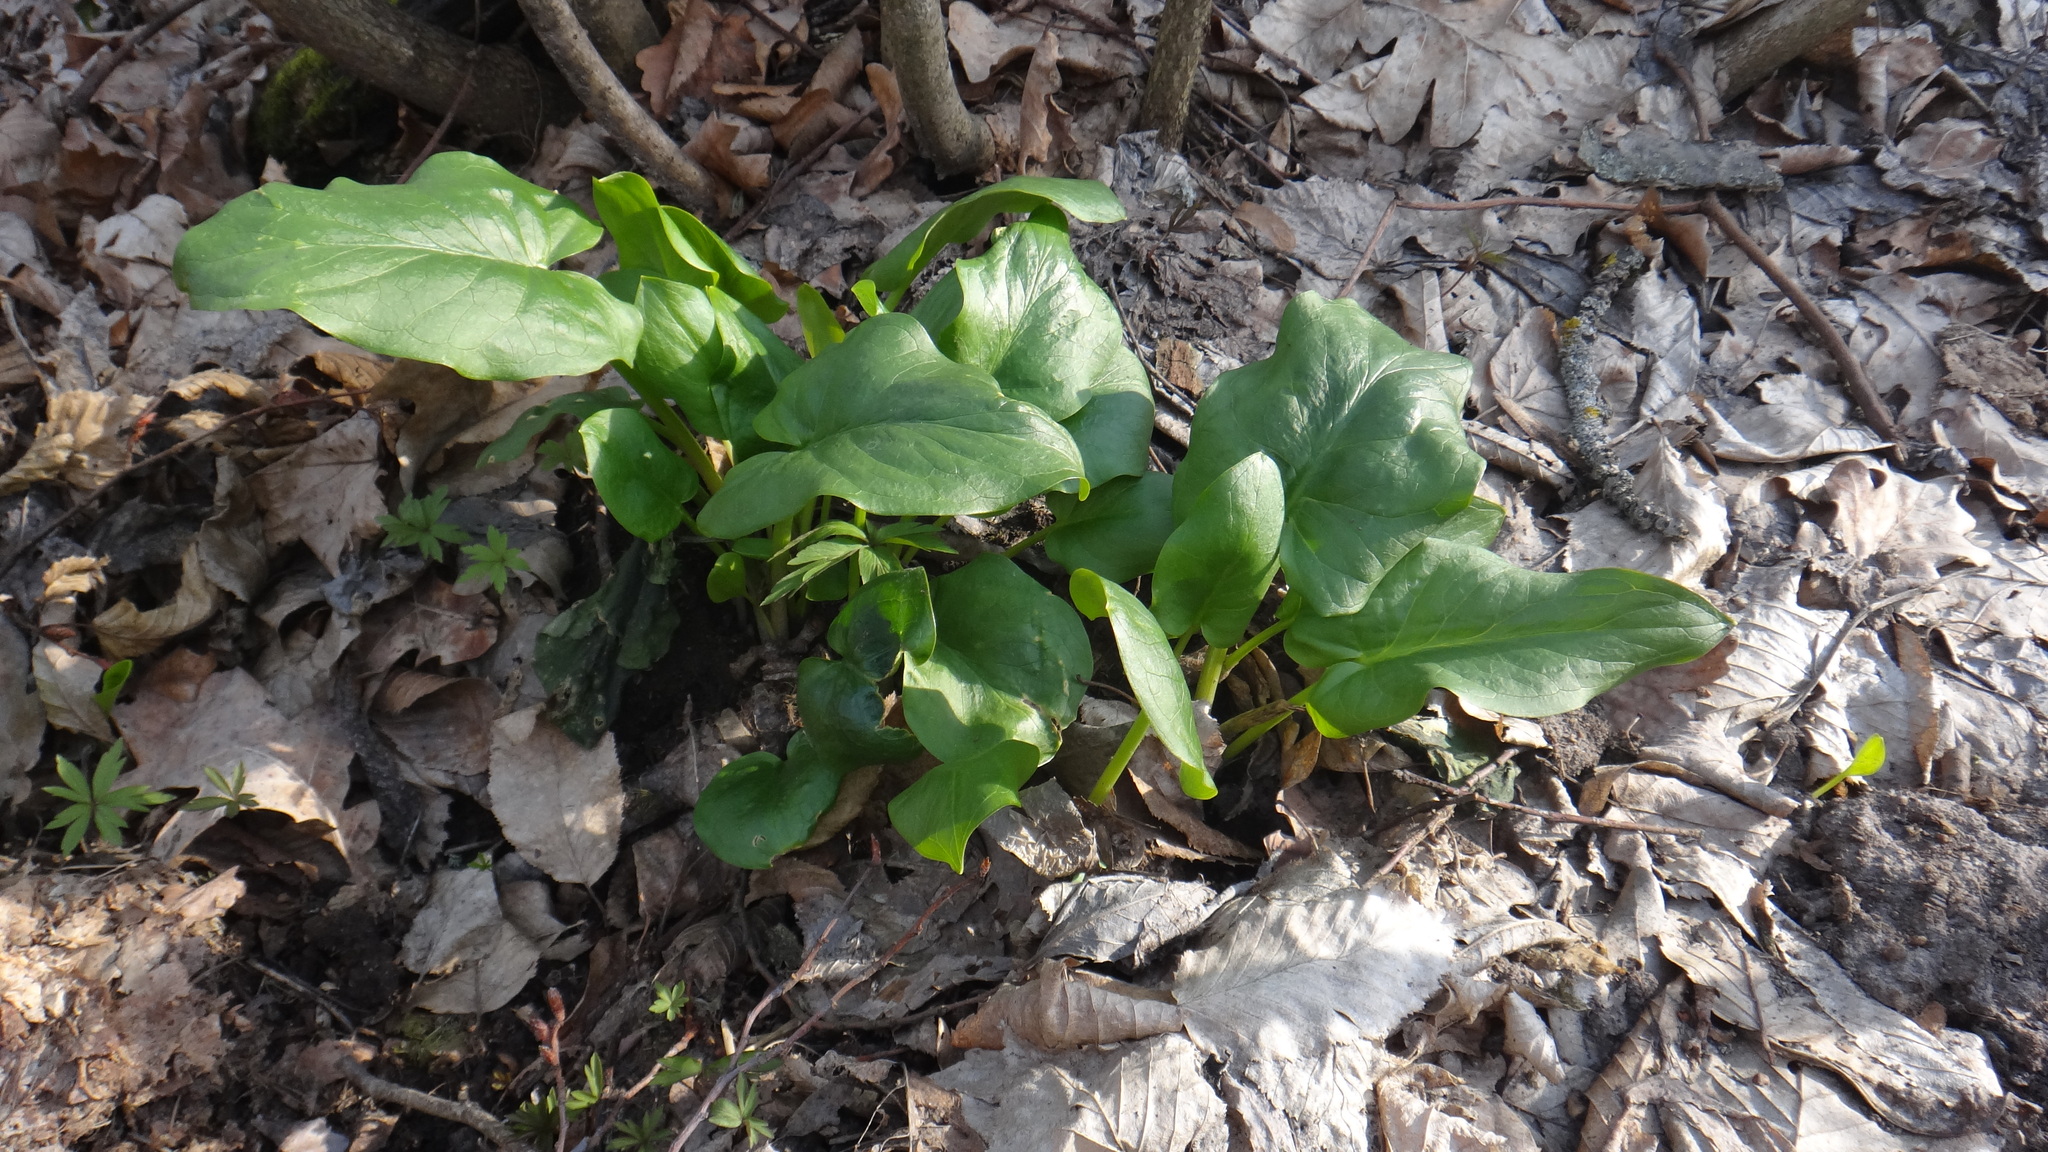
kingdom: Plantae
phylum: Tracheophyta
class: Liliopsida
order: Alismatales
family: Araceae
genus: Arum
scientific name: Arum besserianum
